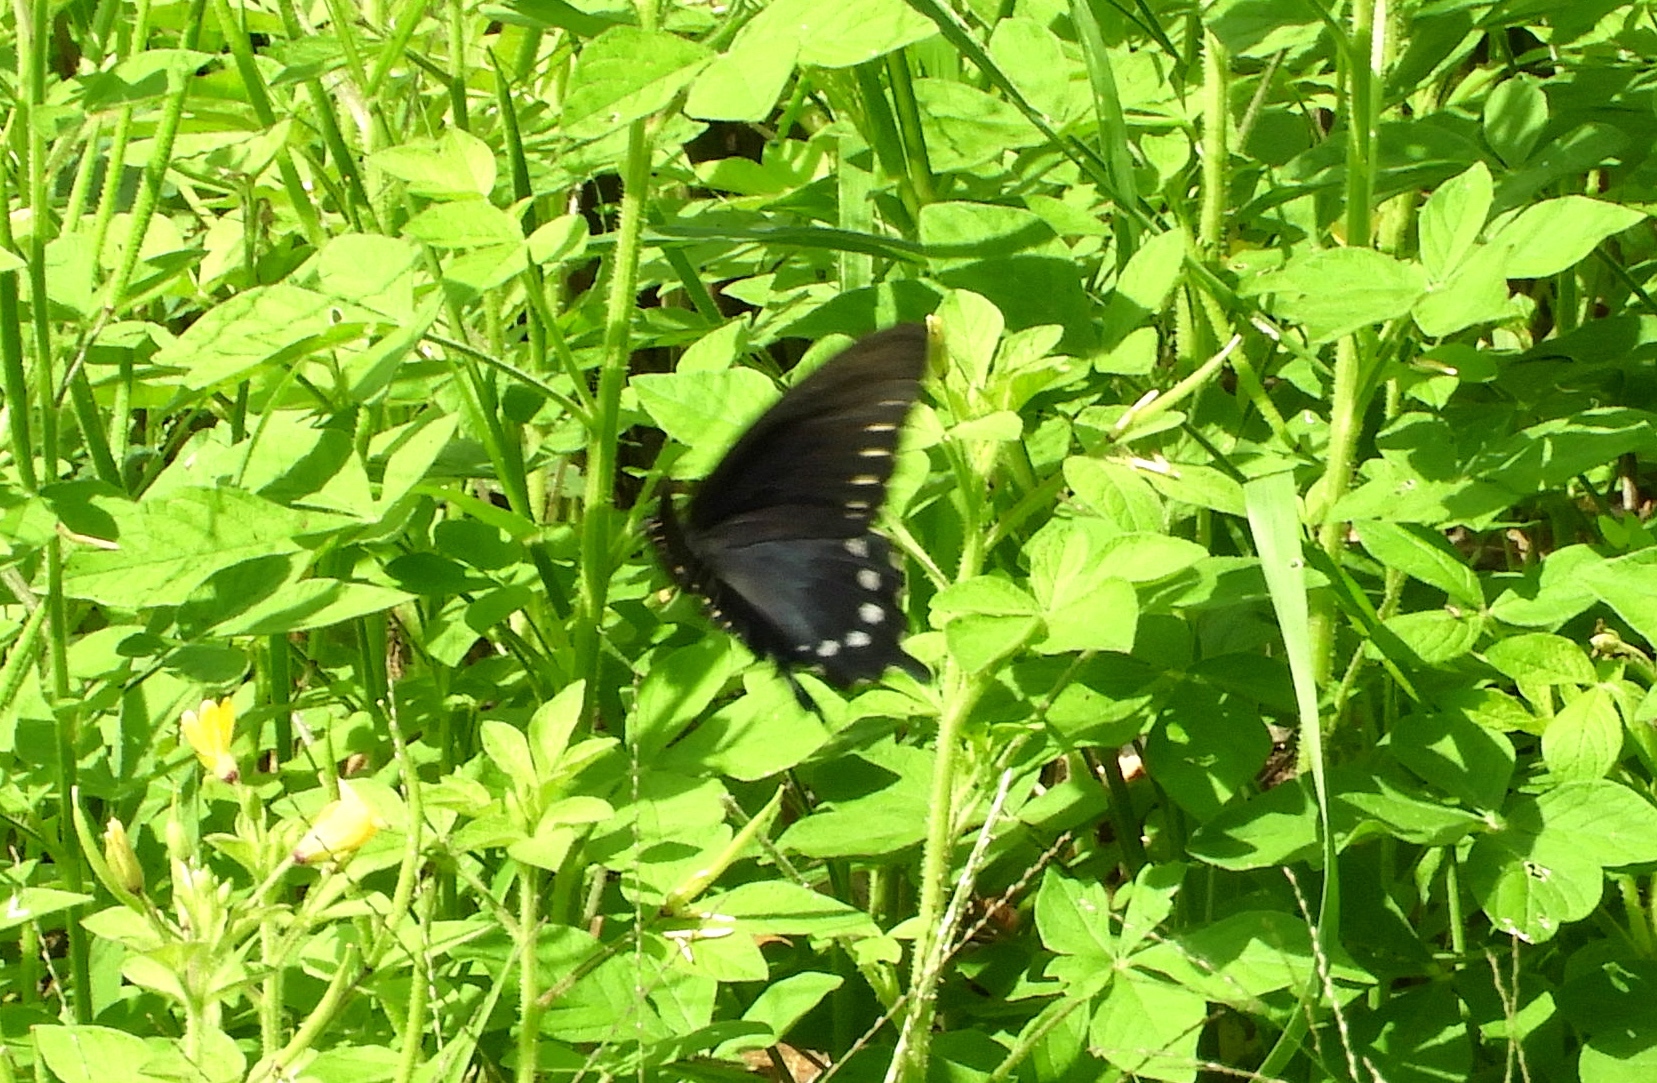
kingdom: Animalia
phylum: Arthropoda
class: Insecta
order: Lepidoptera
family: Papilionidae
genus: Battus
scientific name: Battus philenor
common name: Pipevine swallowtail
